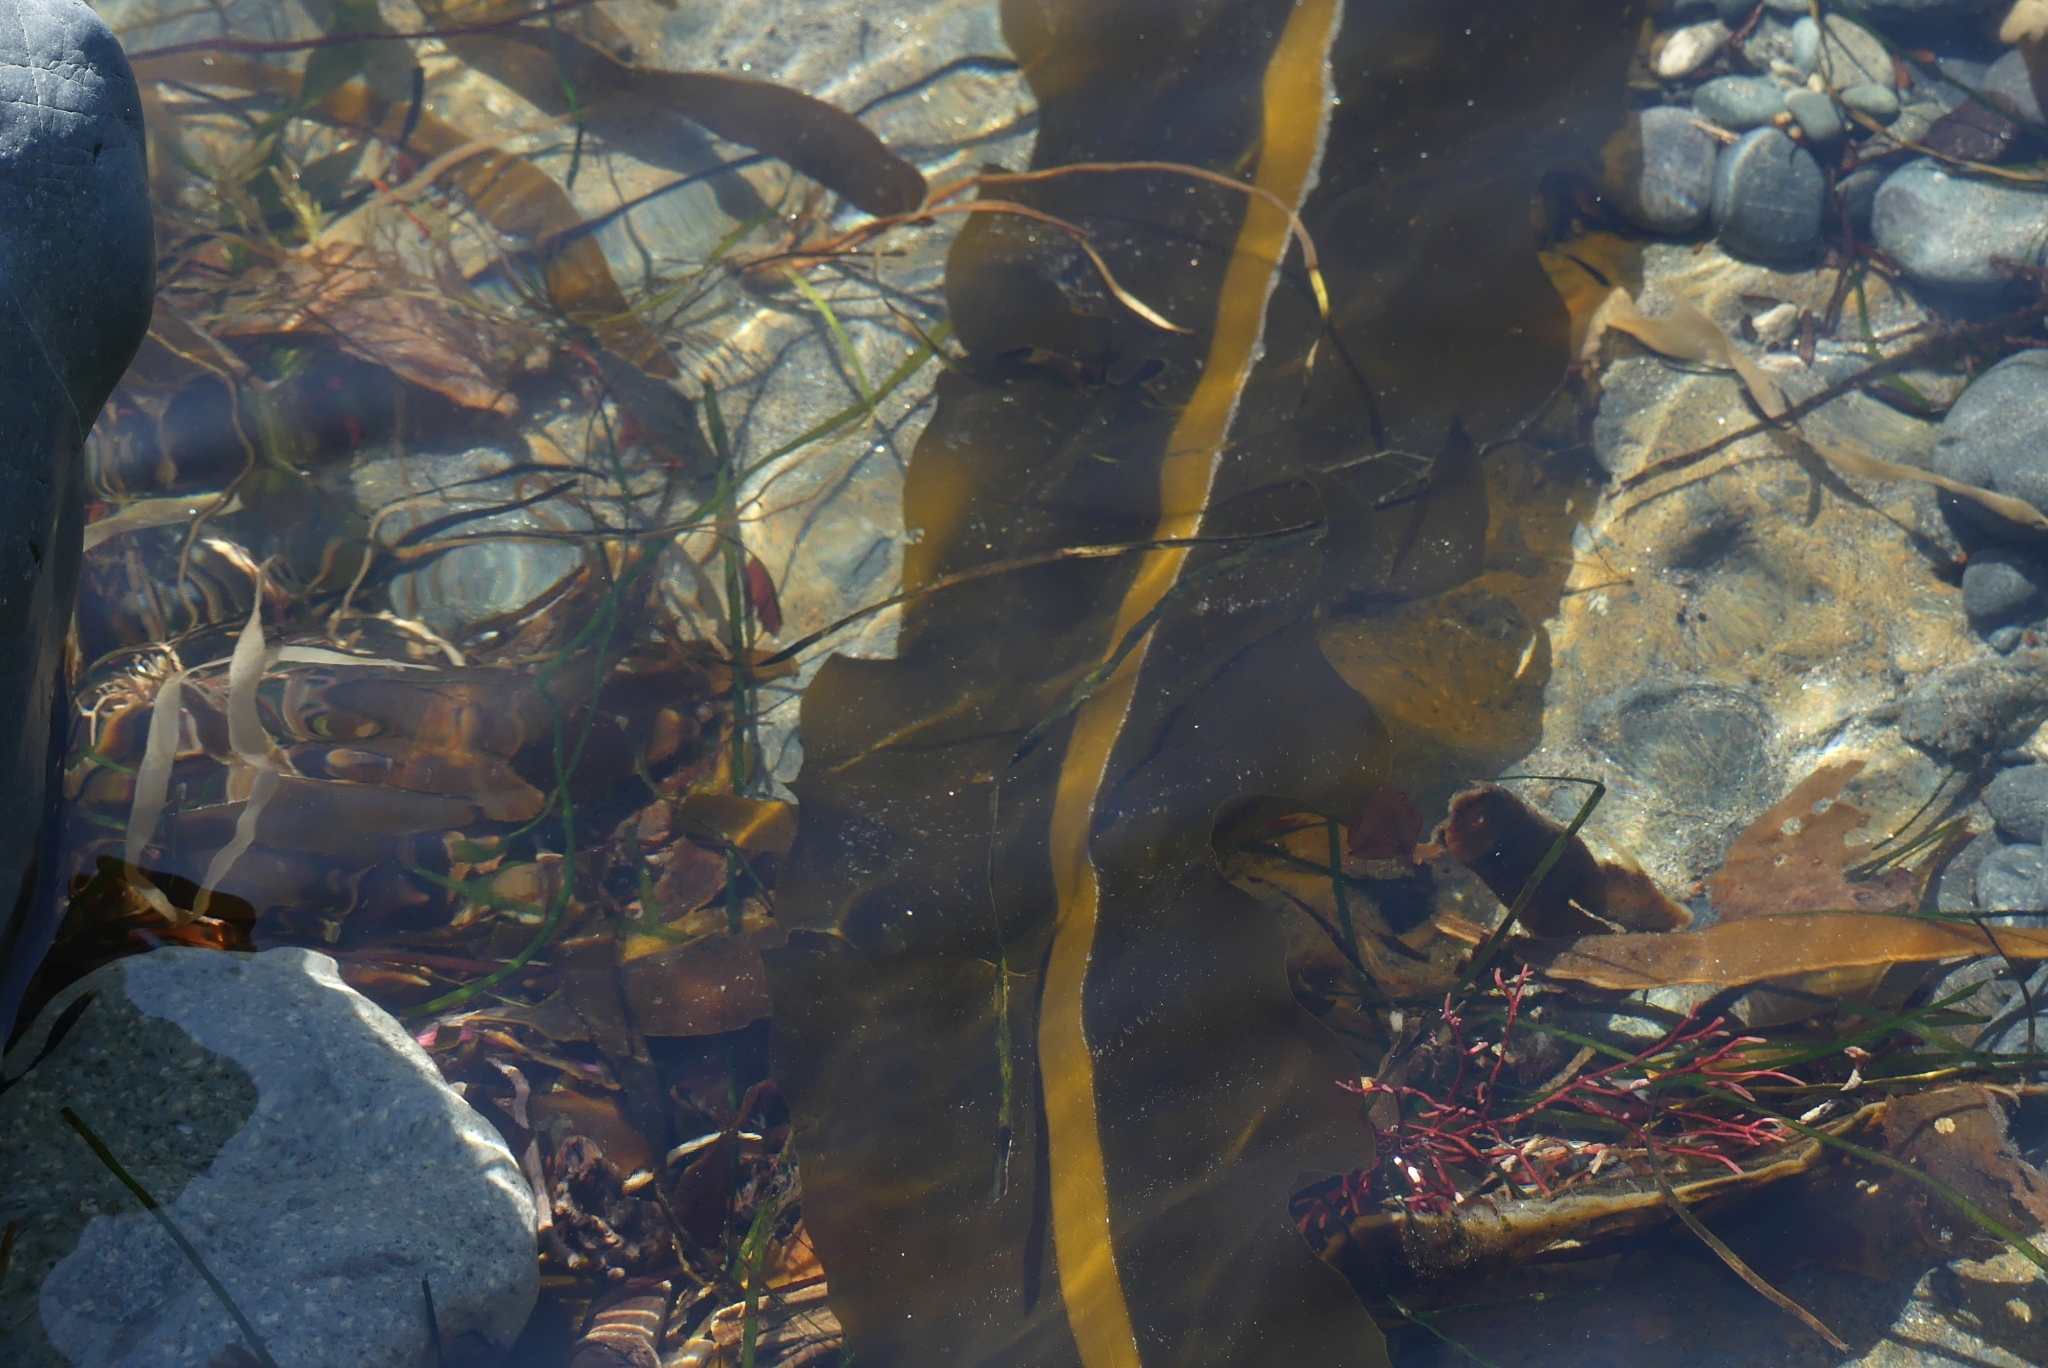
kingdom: Chromista
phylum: Ochrophyta
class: Phaeophyceae
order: Laminariales
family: Alariaceae
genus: Alaria
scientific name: Alaria marginata
